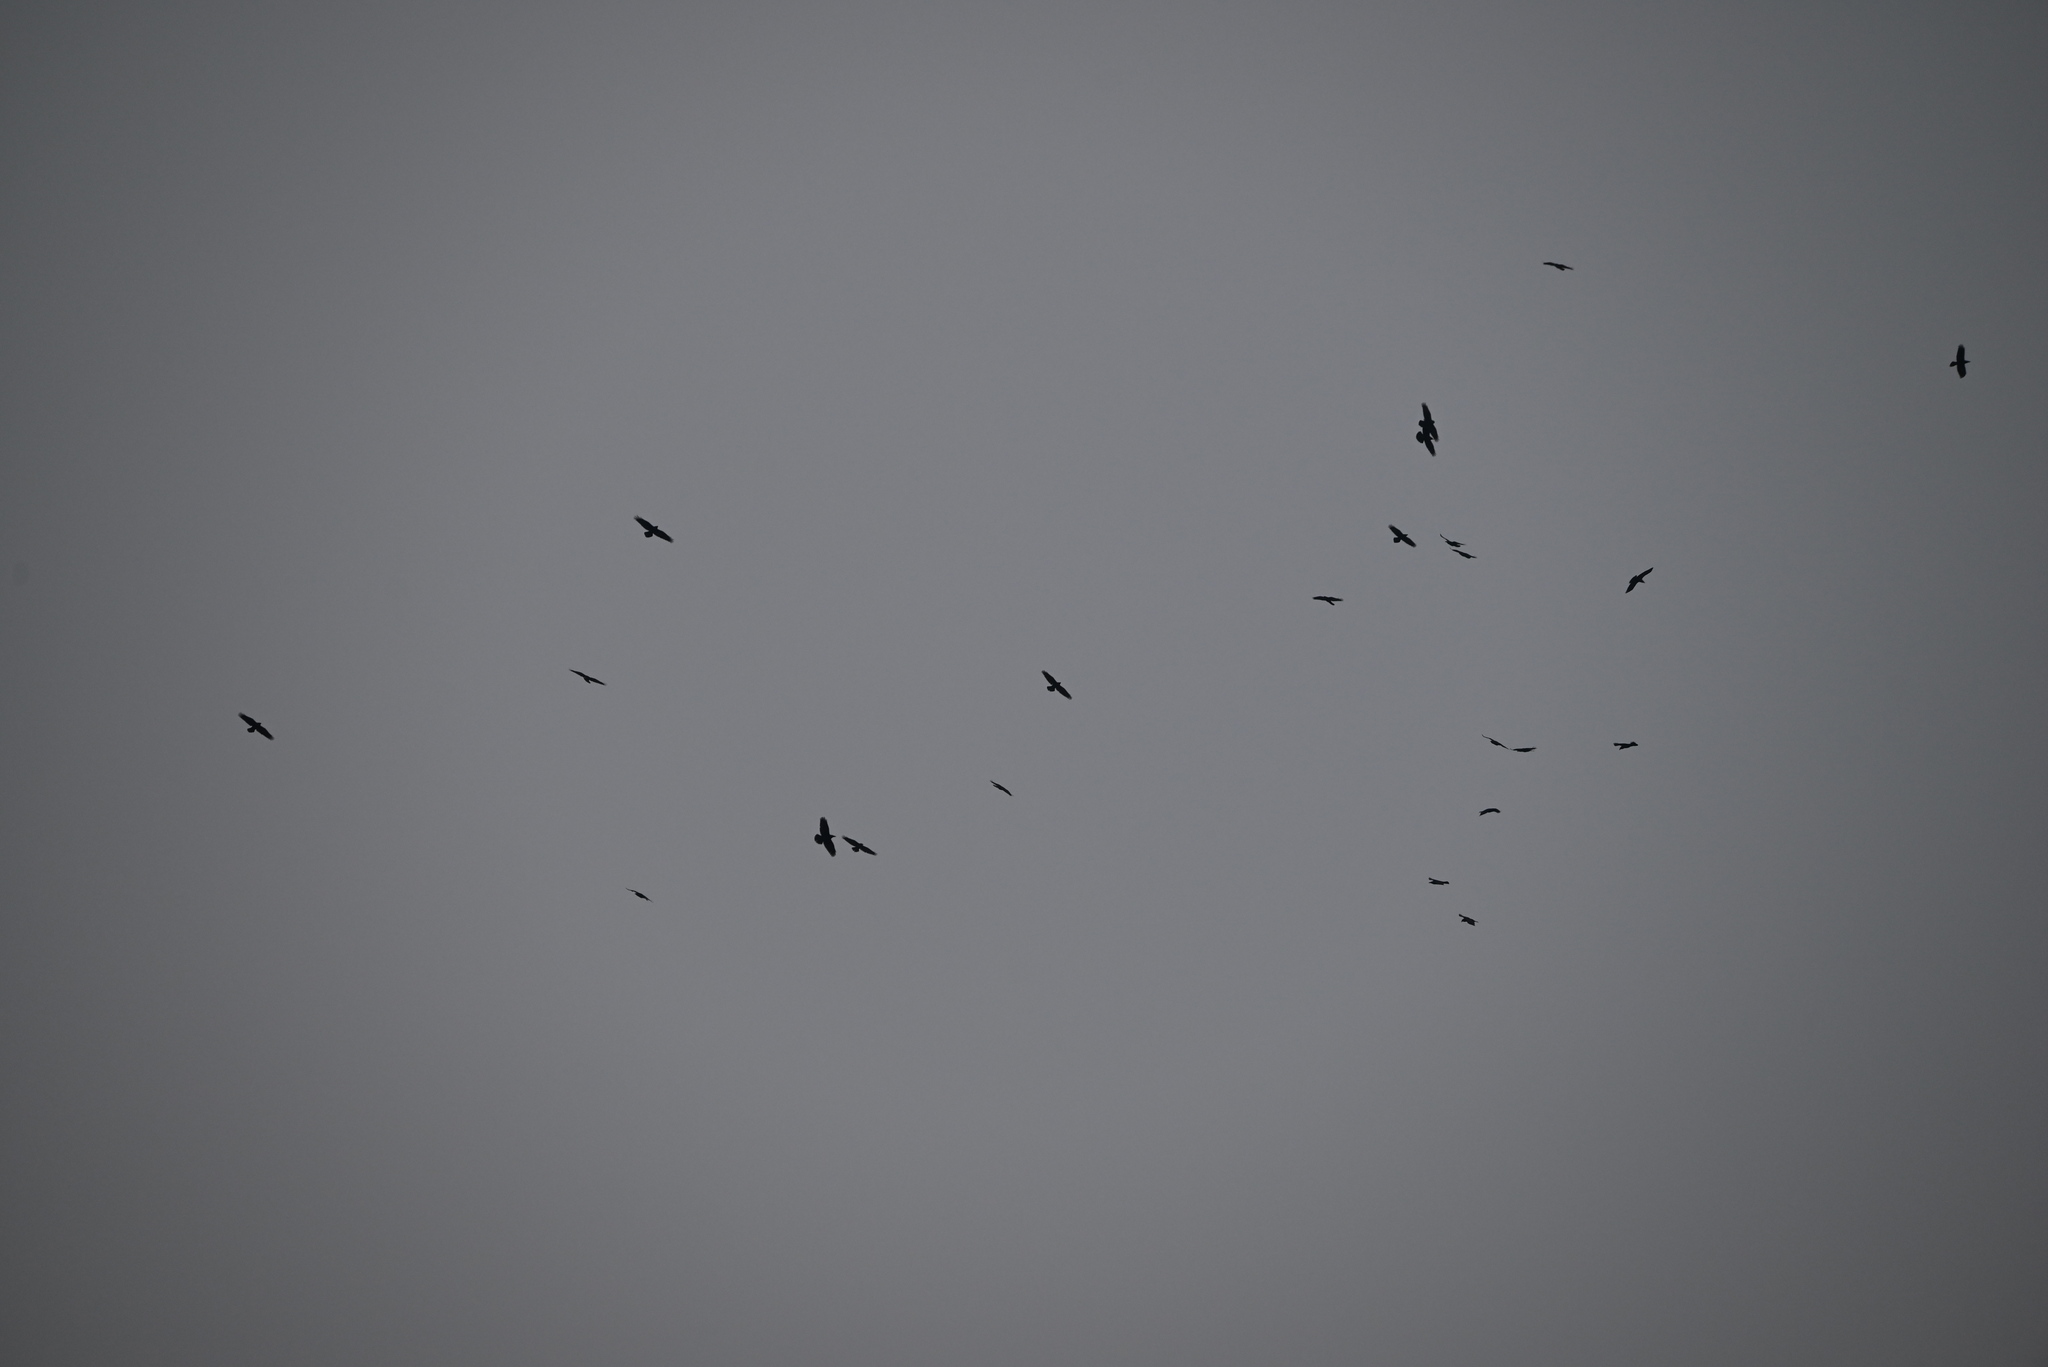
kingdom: Animalia
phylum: Chordata
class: Aves
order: Passeriformes
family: Corvidae
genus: Corvus
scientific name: Corvus corax
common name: Common raven
